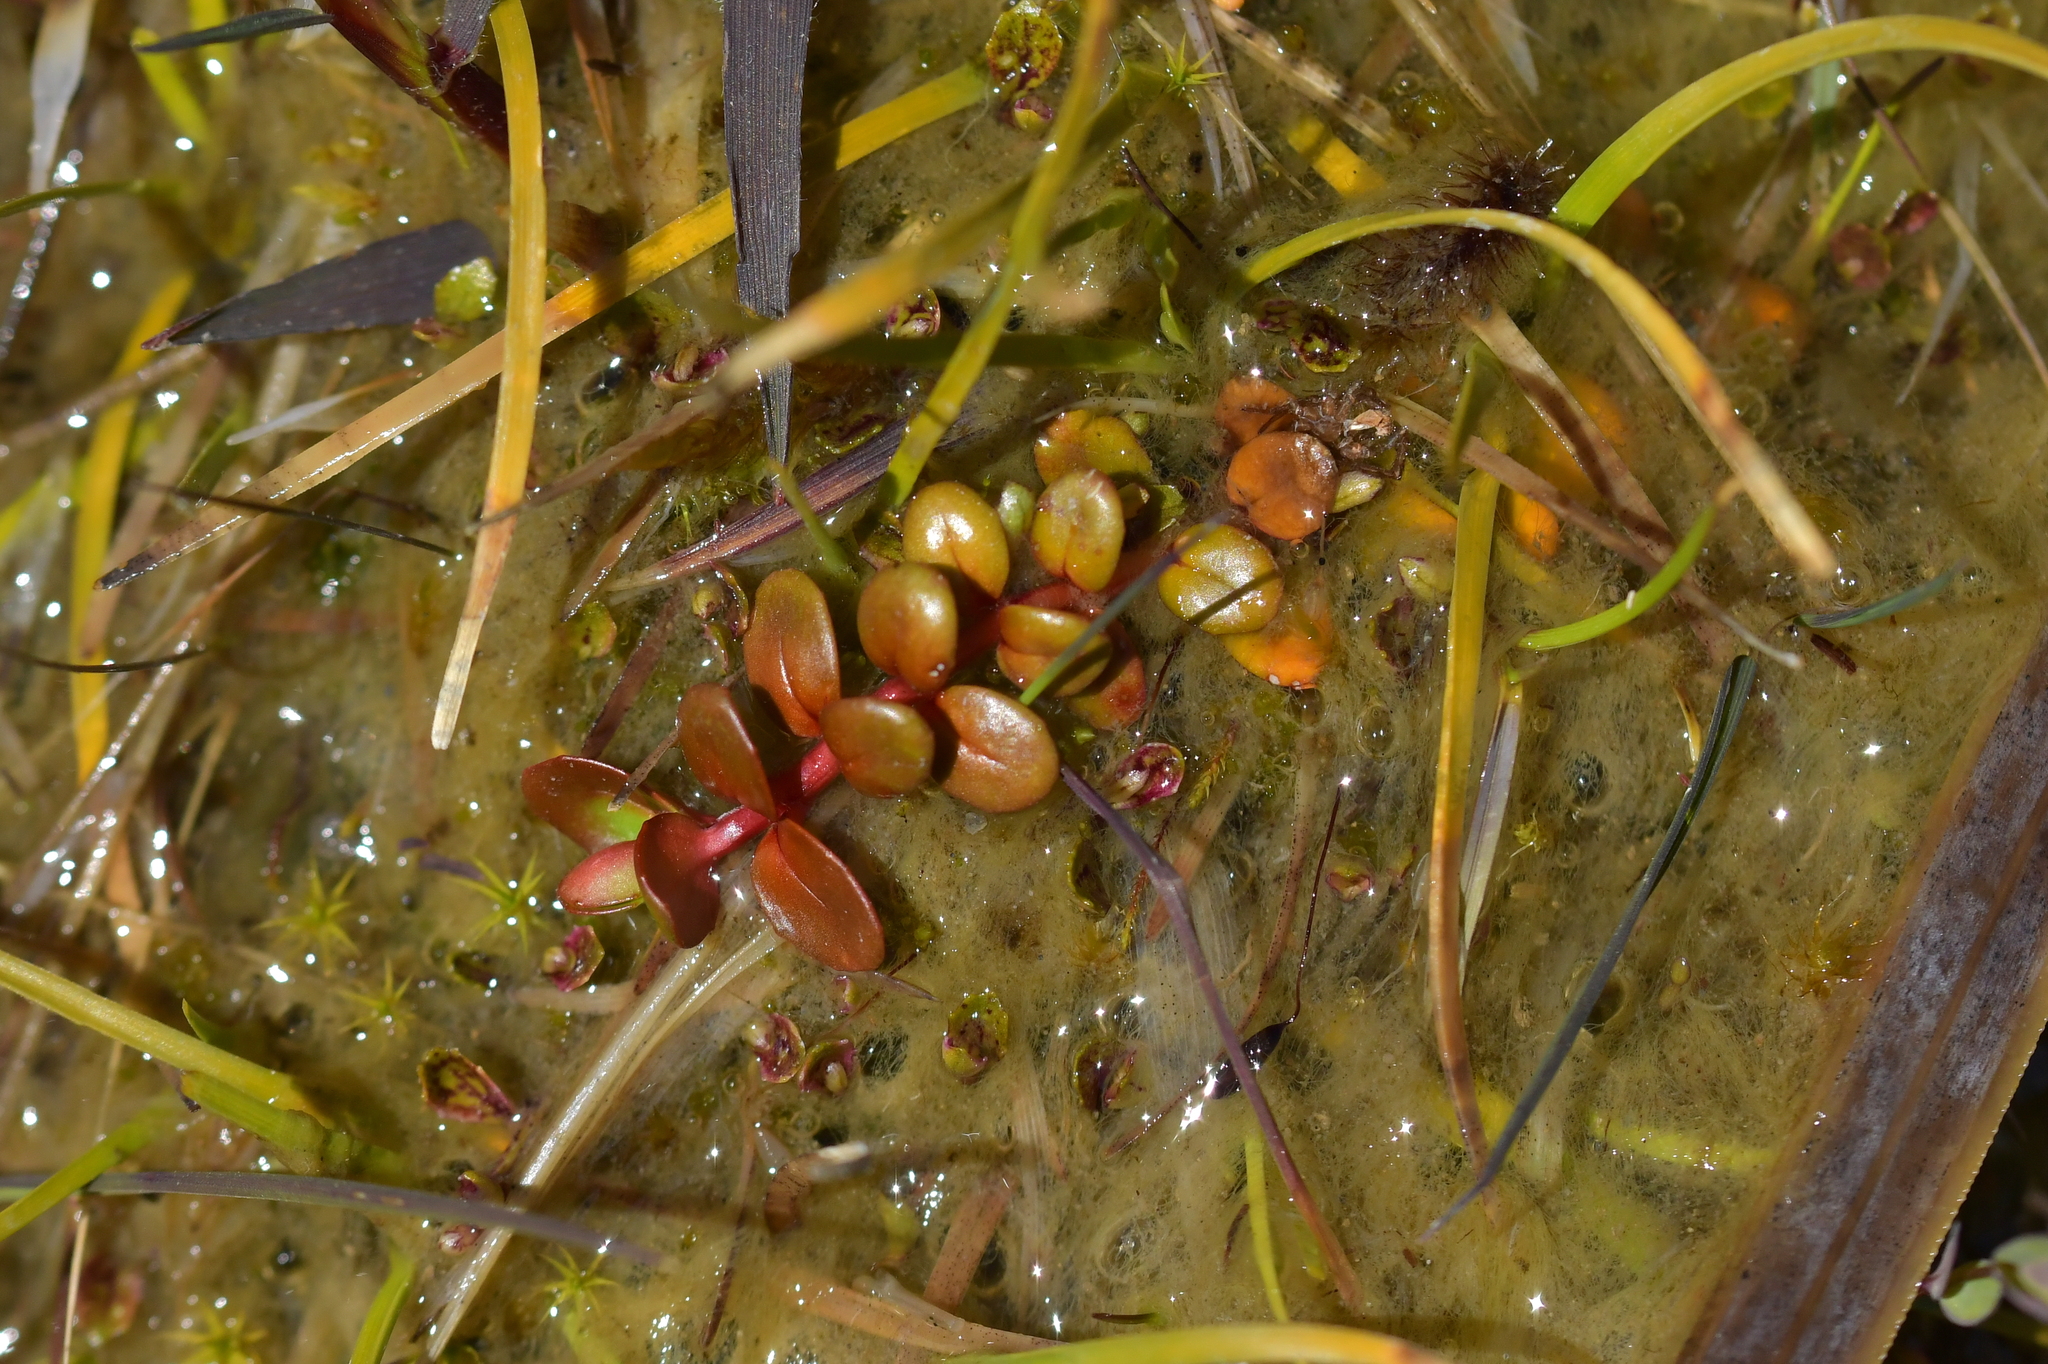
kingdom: Plantae
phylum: Tracheophyta
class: Magnoliopsida
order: Myrtales
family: Onagraceae
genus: Epilobium
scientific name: Epilobium brunnescens
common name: New zealand willowherb
